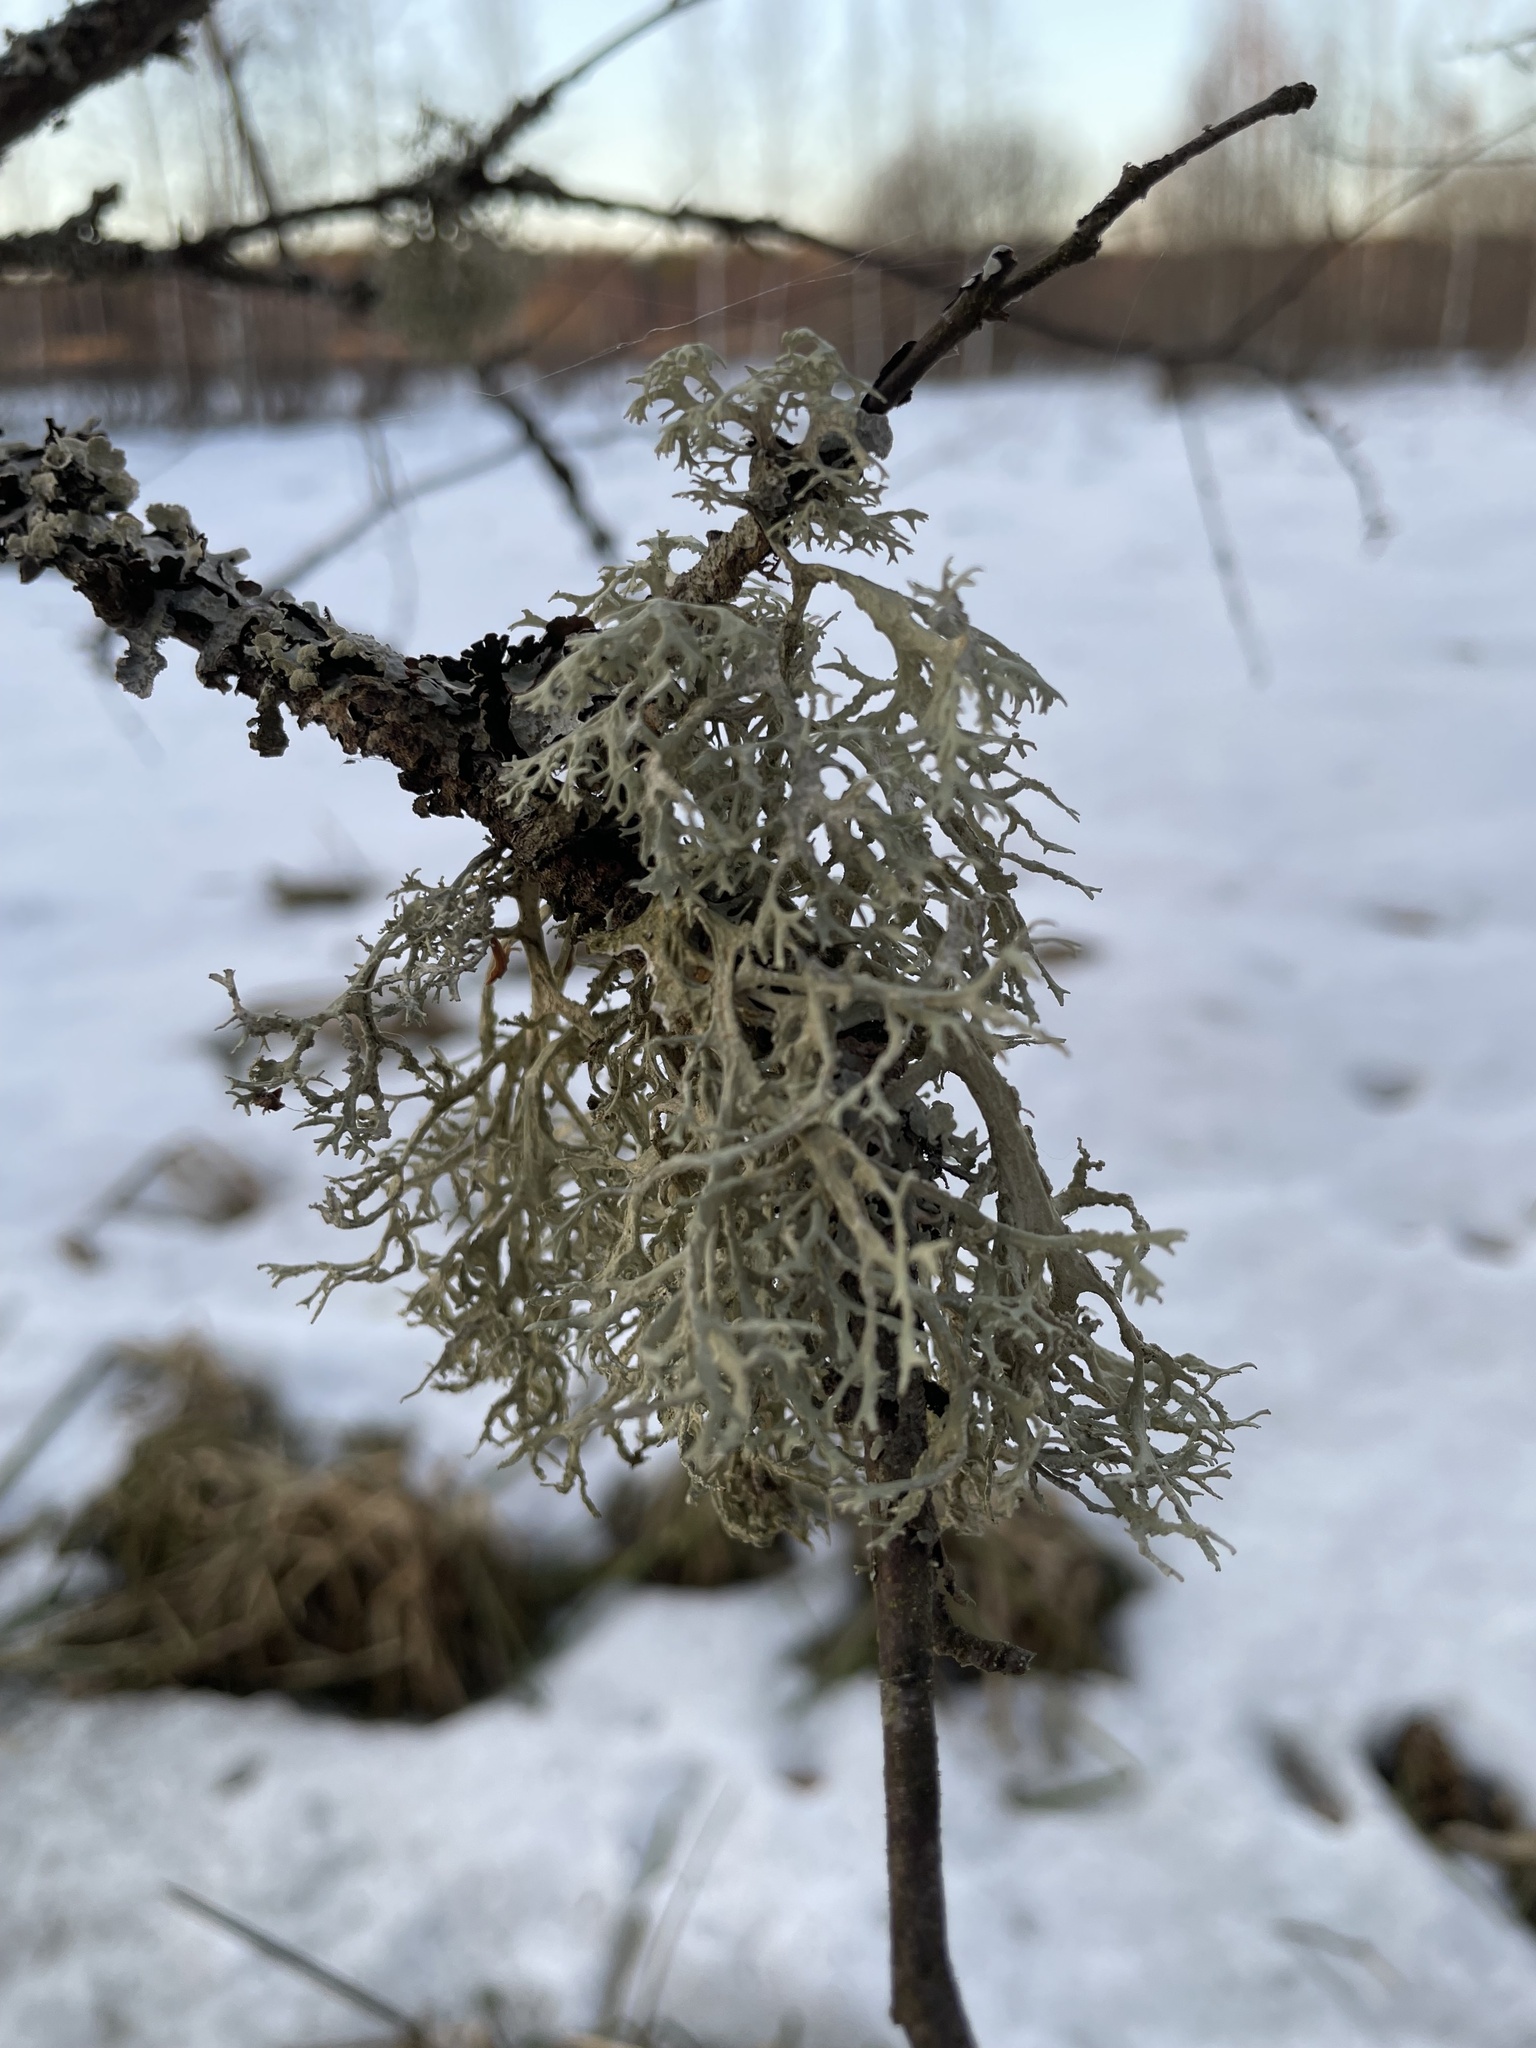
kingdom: Fungi
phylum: Ascomycota
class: Lecanoromycetes
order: Lecanorales
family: Parmeliaceae
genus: Evernia
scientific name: Evernia prunastri
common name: Oak moss
